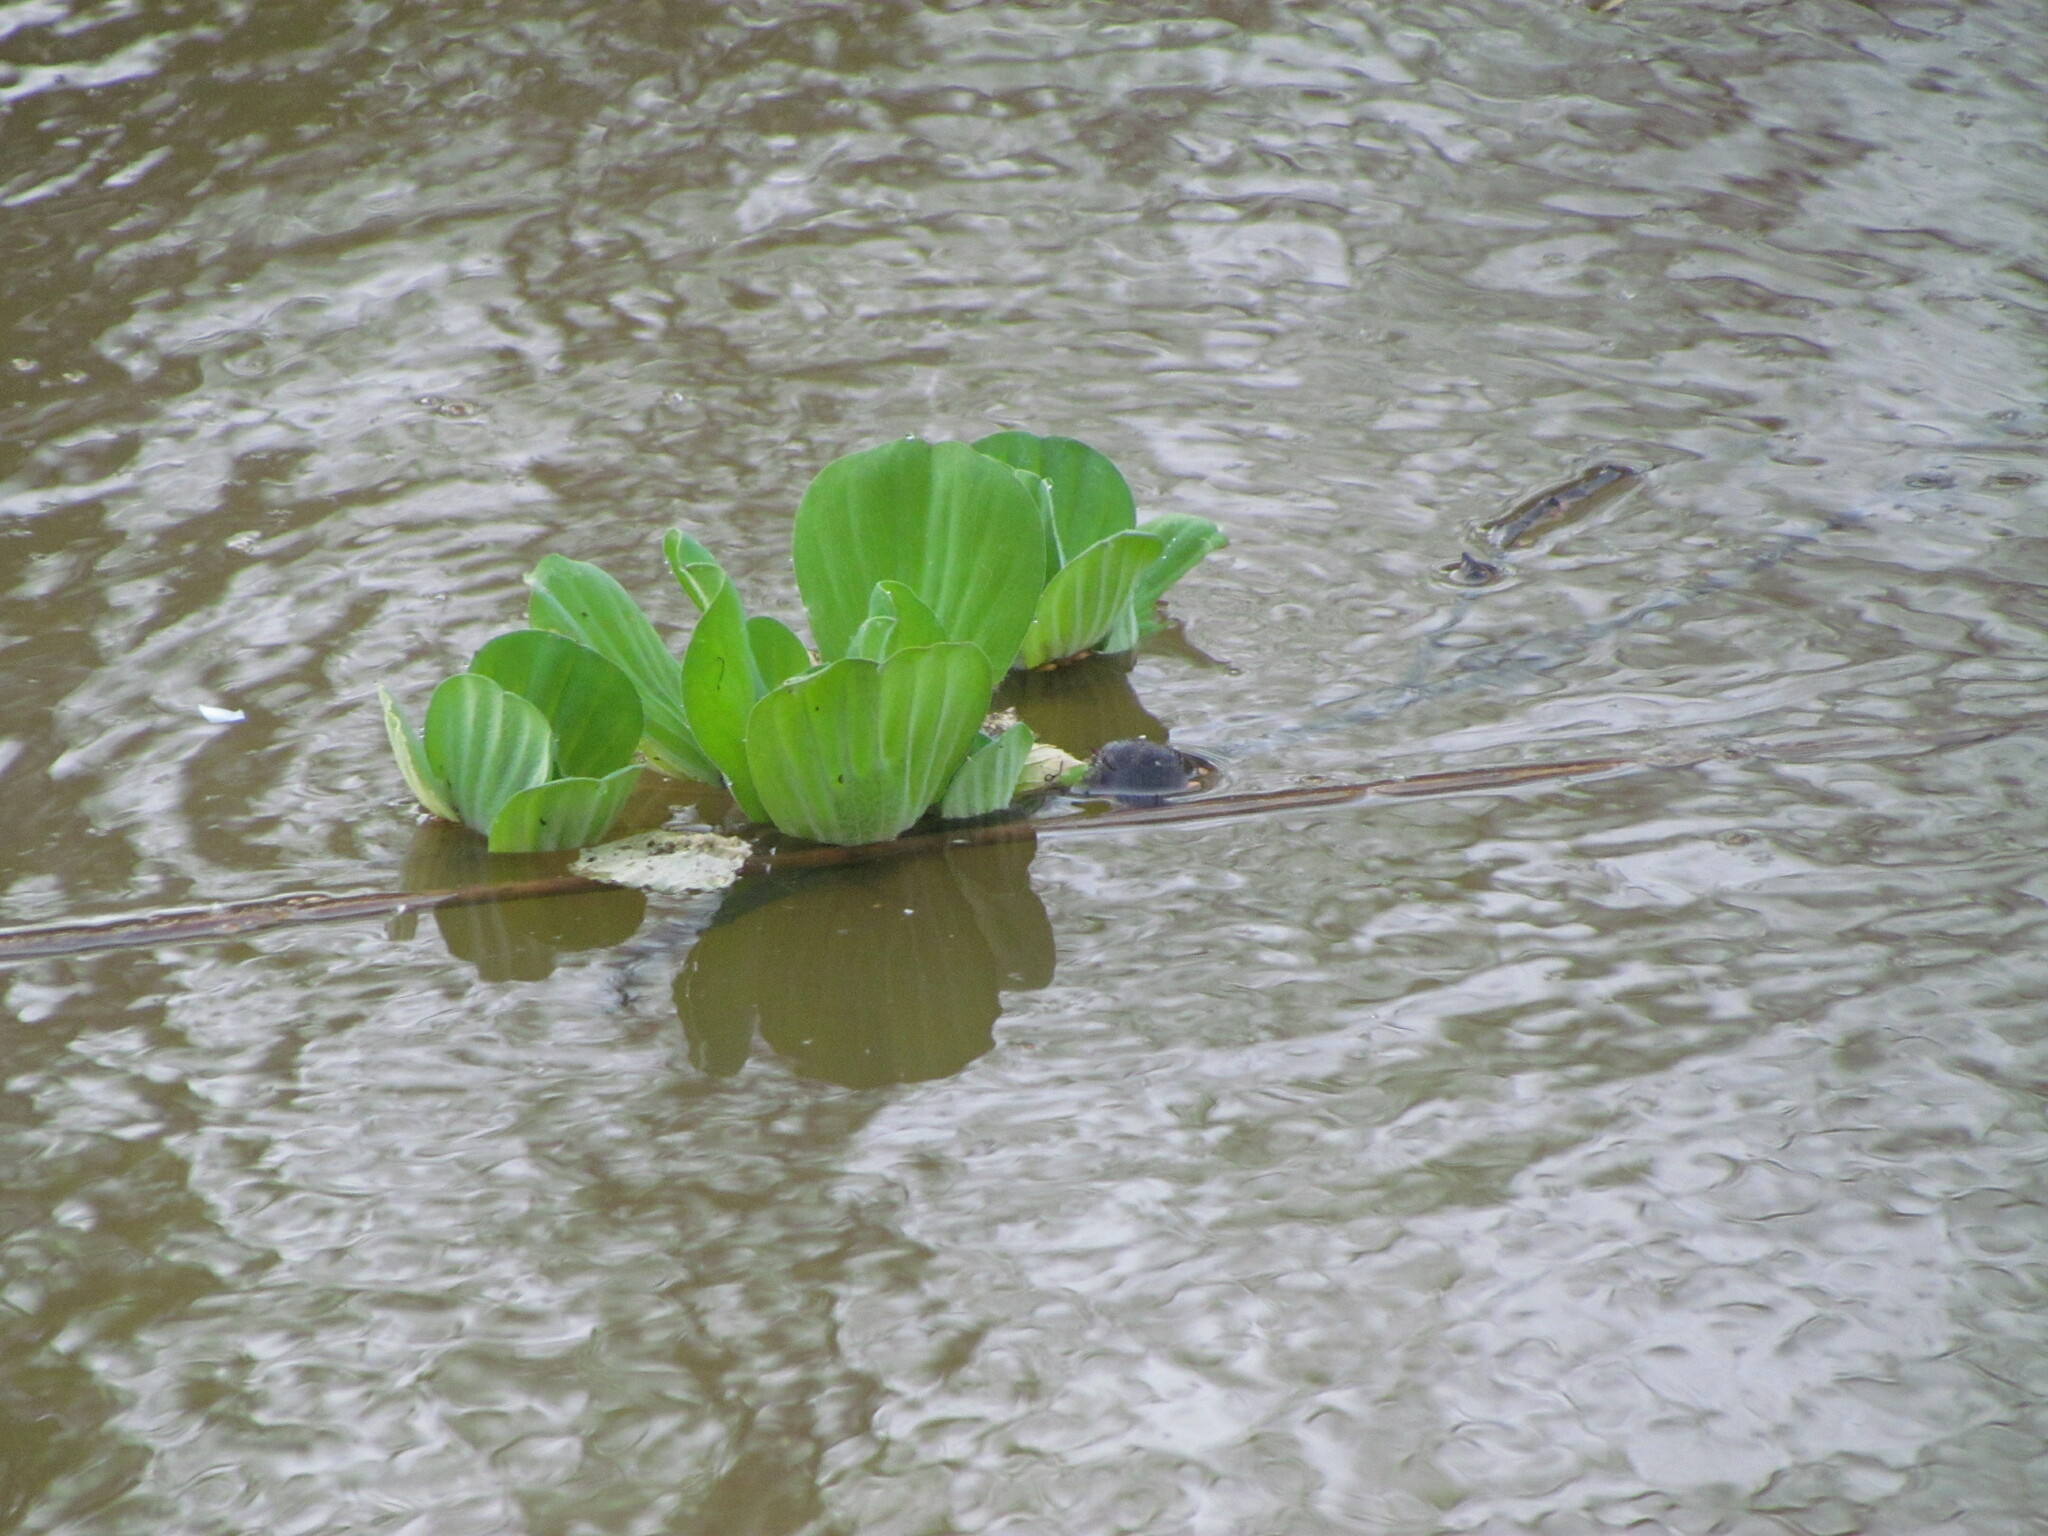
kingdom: Plantae
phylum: Tracheophyta
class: Liliopsida
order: Alismatales
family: Araceae
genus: Pistia
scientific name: Pistia stratiotes
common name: Water lettuce
